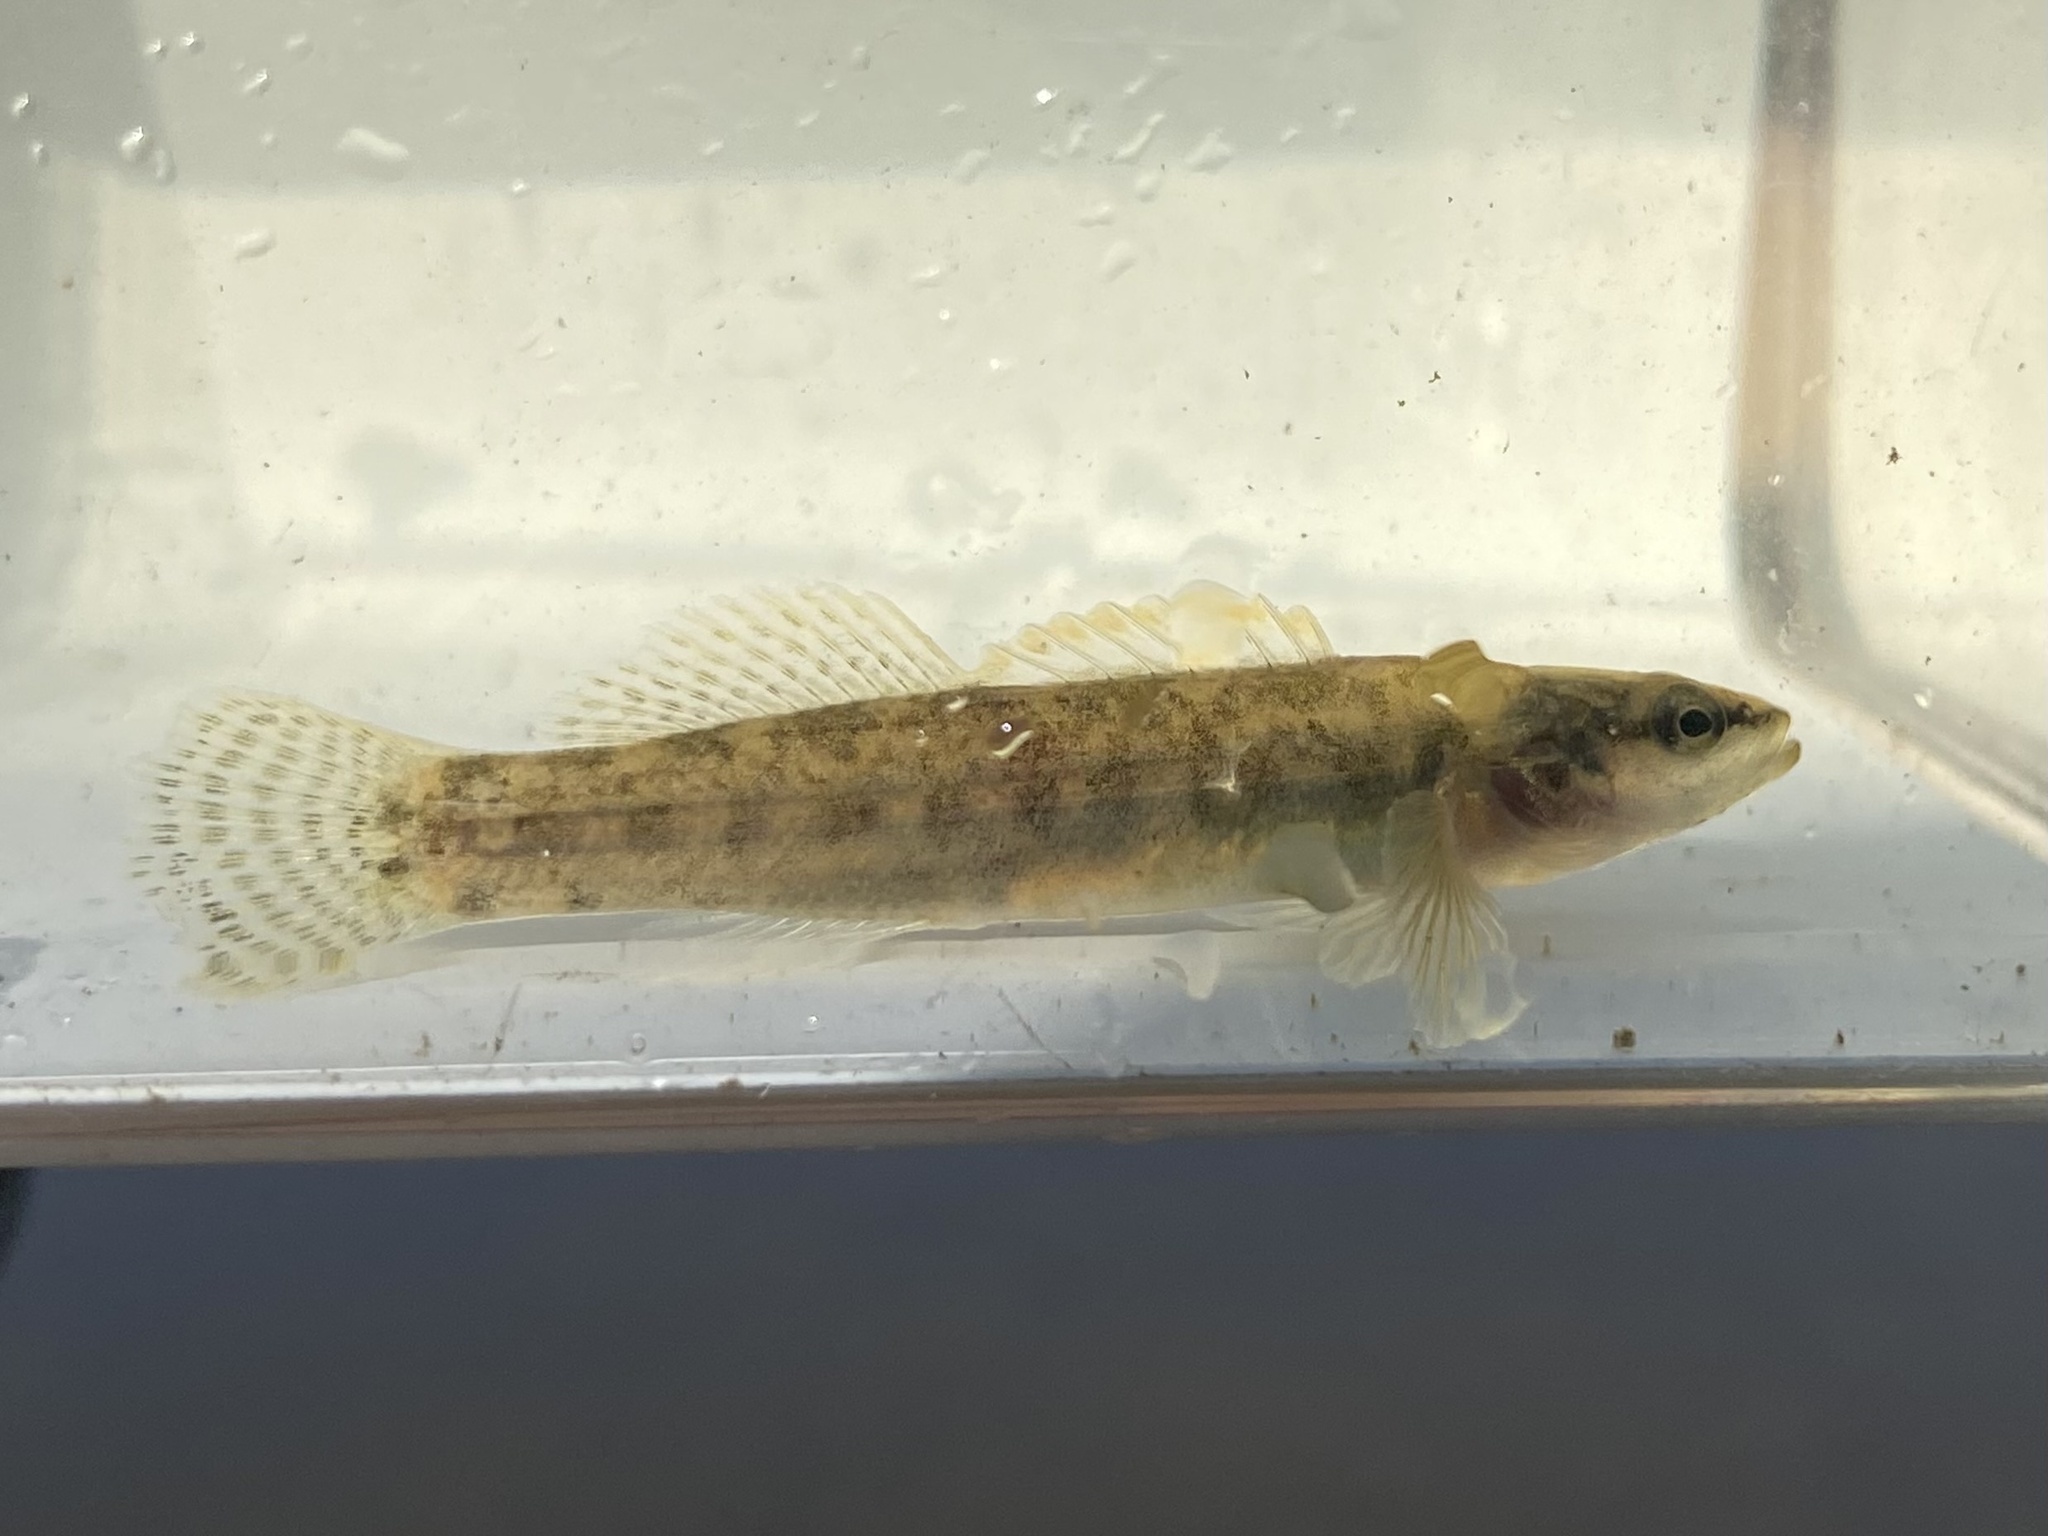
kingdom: Animalia
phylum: Chordata
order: Perciformes
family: Percidae
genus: Etheostoma
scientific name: Etheostoma flabellare
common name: Fantail darter
